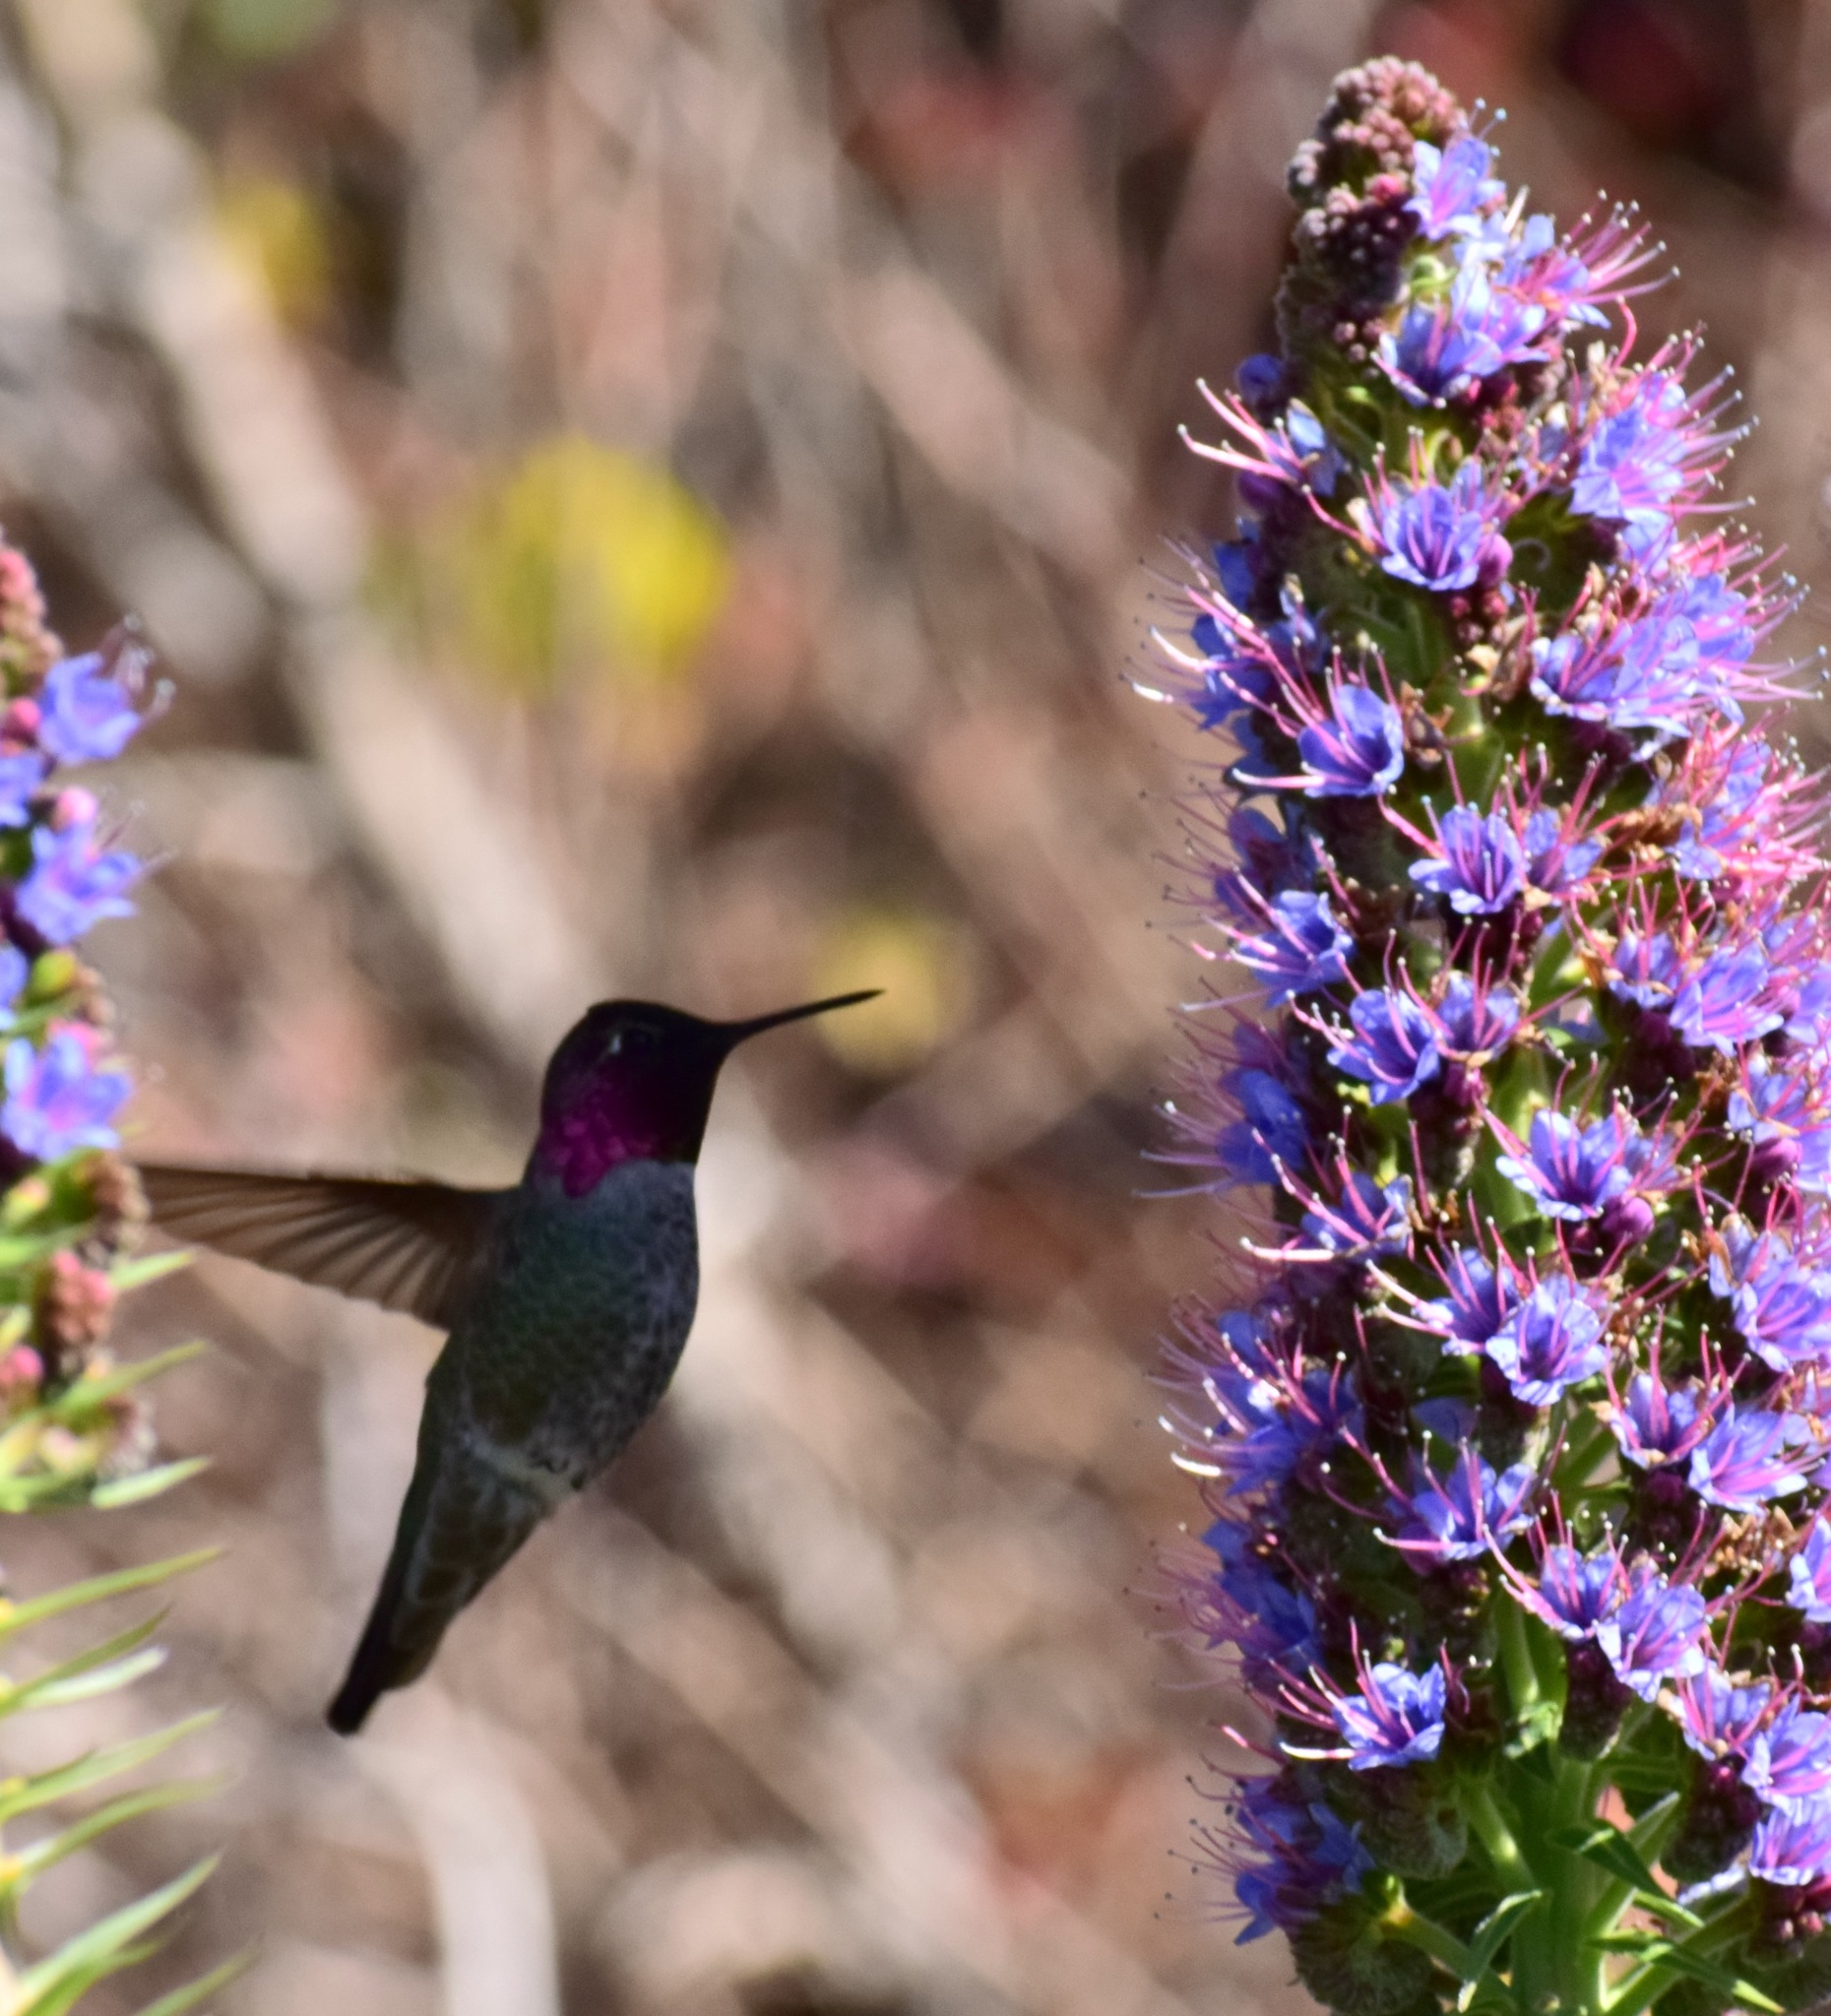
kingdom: Animalia
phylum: Chordata
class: Aves
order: Apodiformes
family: Trochilidae
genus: Calypte
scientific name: Calypte anna
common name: Anna's hummingbird
